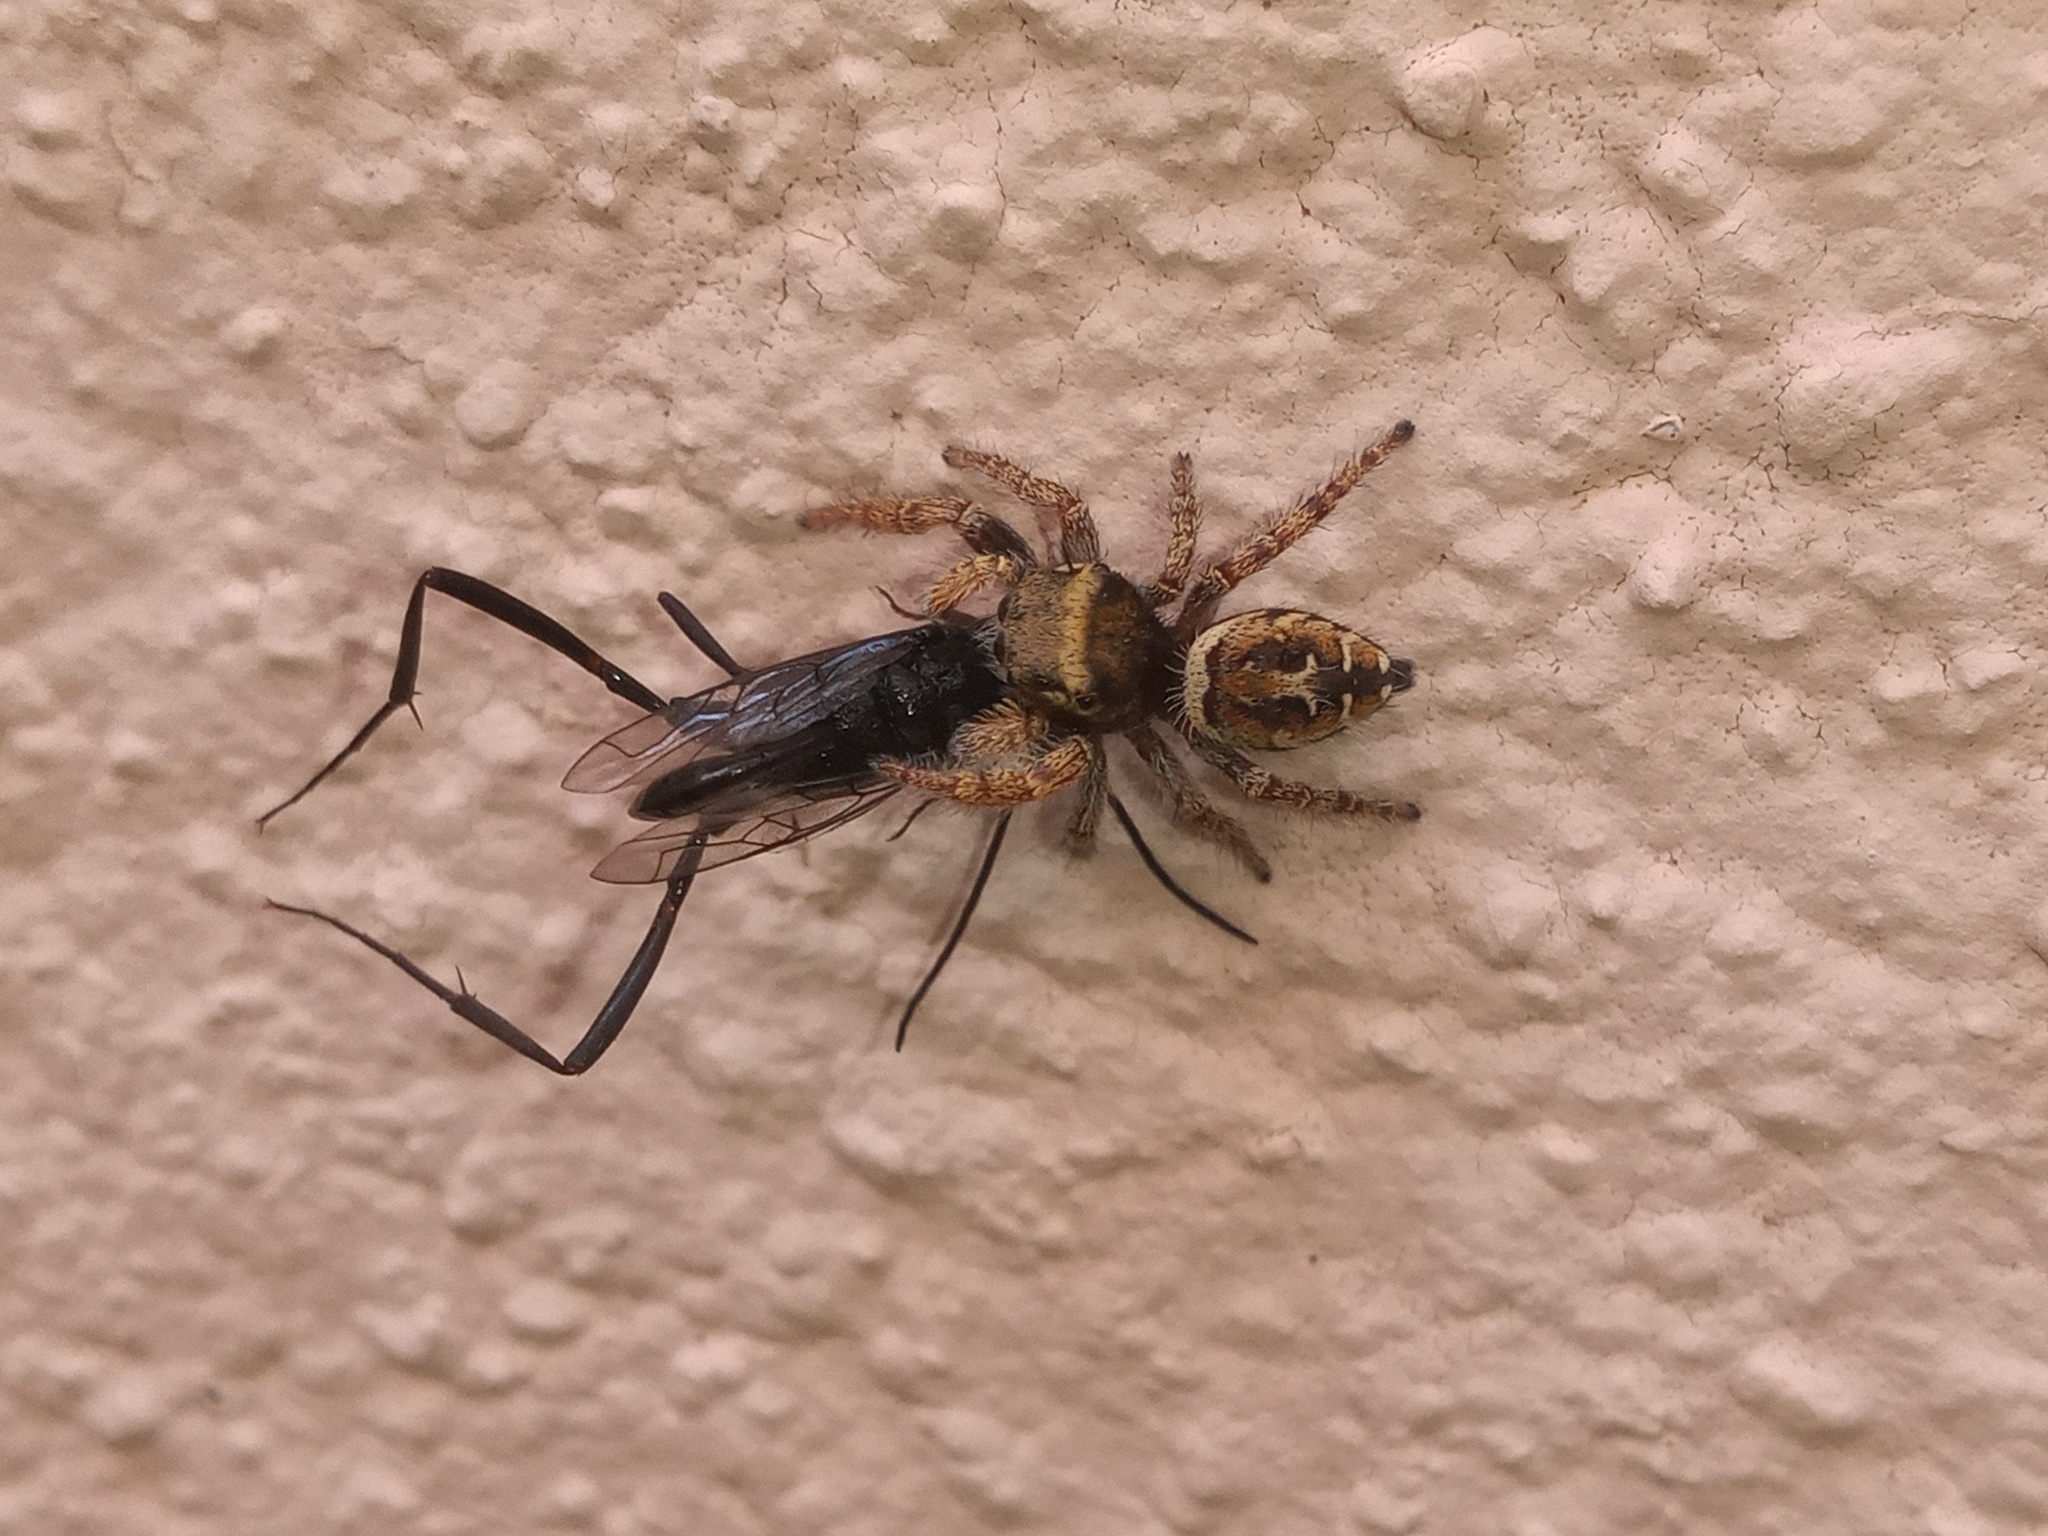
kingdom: Animalia
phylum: Arthropoda
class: Arachnida
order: Araneae
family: Salticidae
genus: Phidippus
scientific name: Phidippus arizonensis
